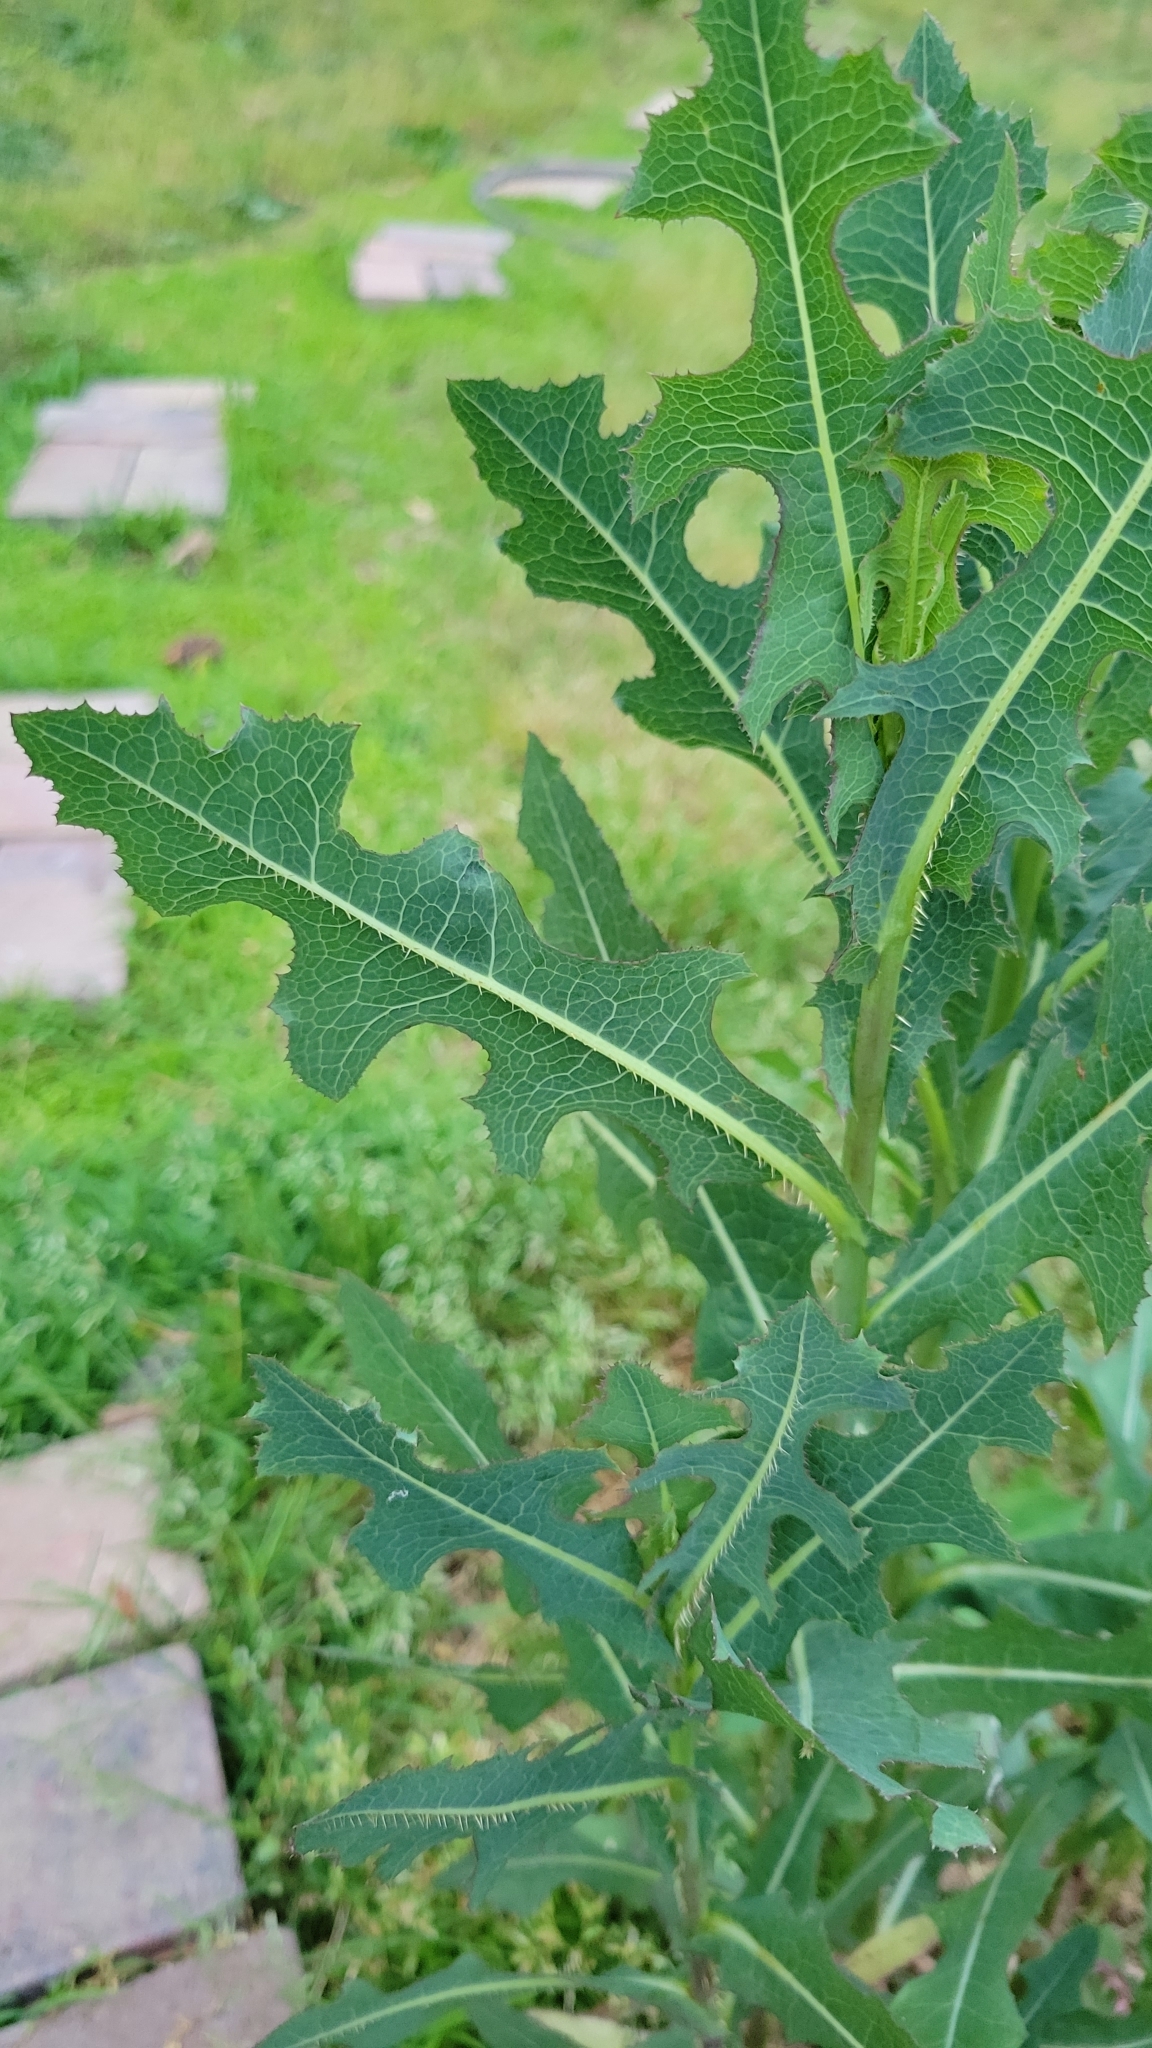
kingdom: Plantae
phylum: Tracheophyta
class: Magnoliopsida
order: Asterales
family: Asteraceae
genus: Lactuca
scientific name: Lactuca serriola
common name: Prickly lettuce
